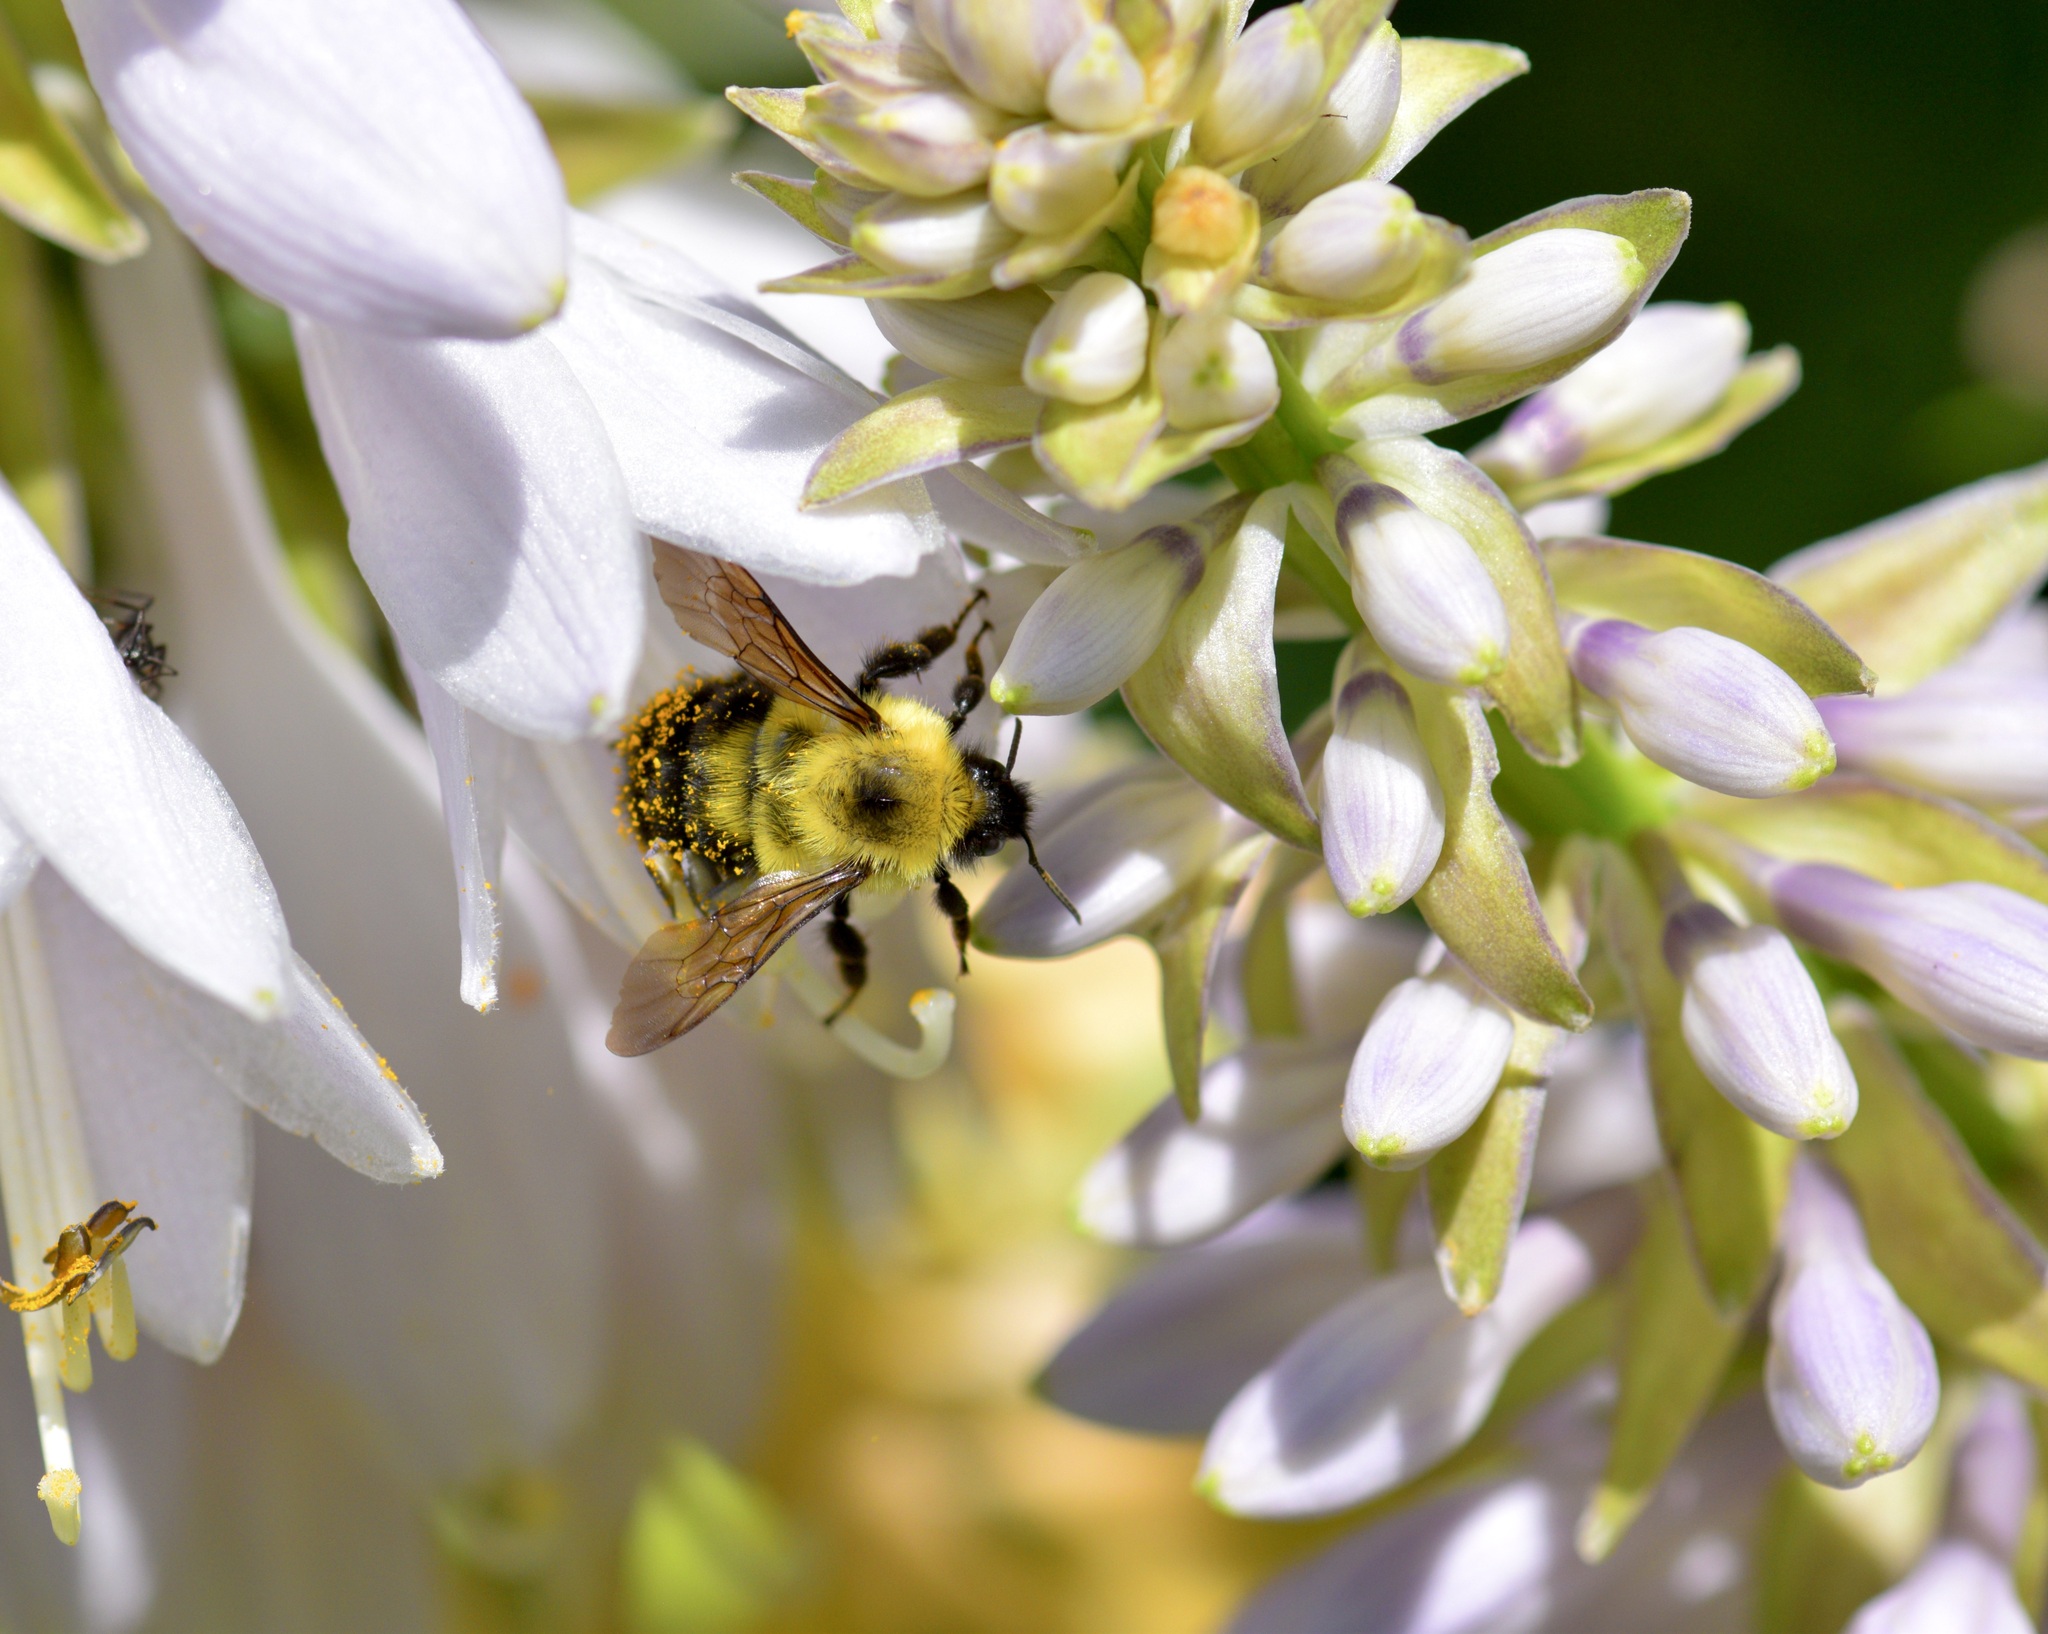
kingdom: Animalia
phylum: Arthropoda
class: Insecta
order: Hymenoptera
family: Apidae
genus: Bombus
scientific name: Bombus bimaculatus
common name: Two-spotted bumble bee
